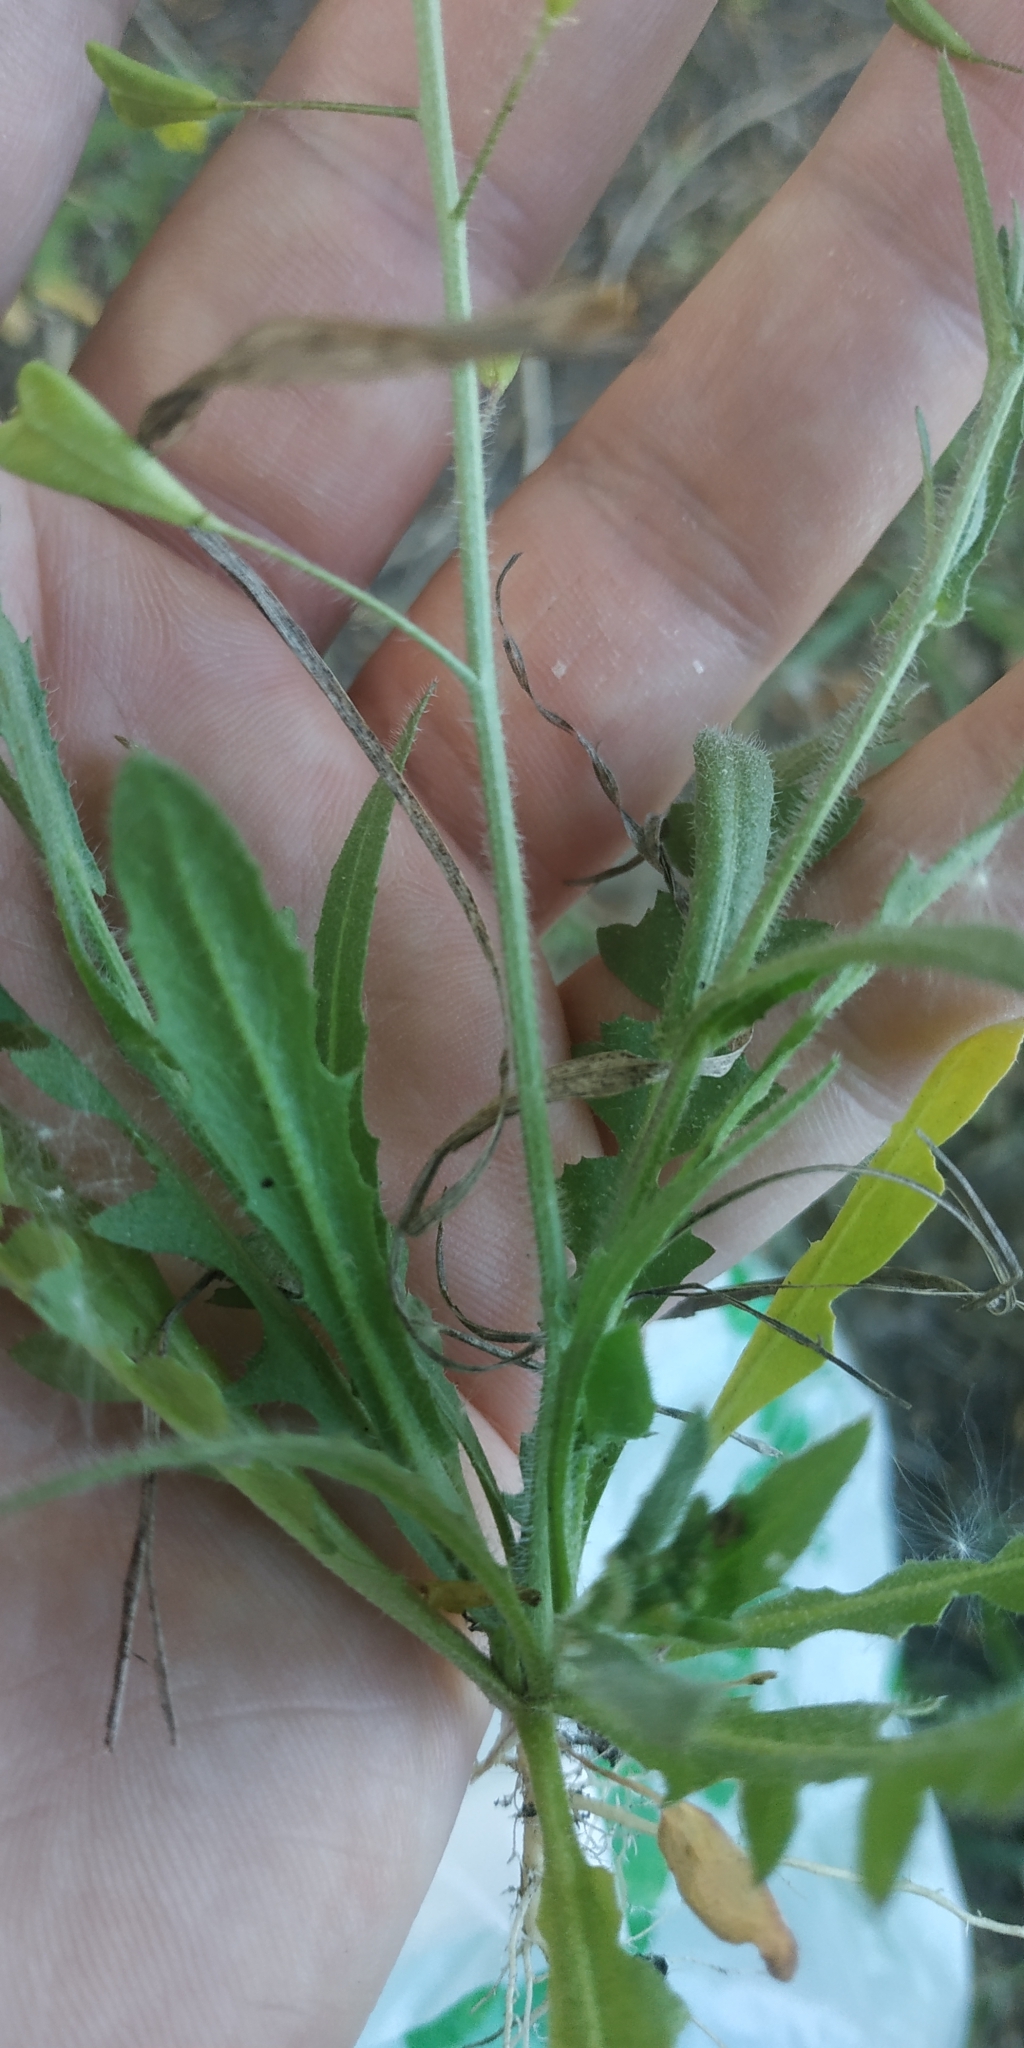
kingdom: Plantae
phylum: Tracheophyta
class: Magnoliopsida
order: Brassicales
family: Brassicaceae
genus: Capsella
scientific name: Capsella orientalis
